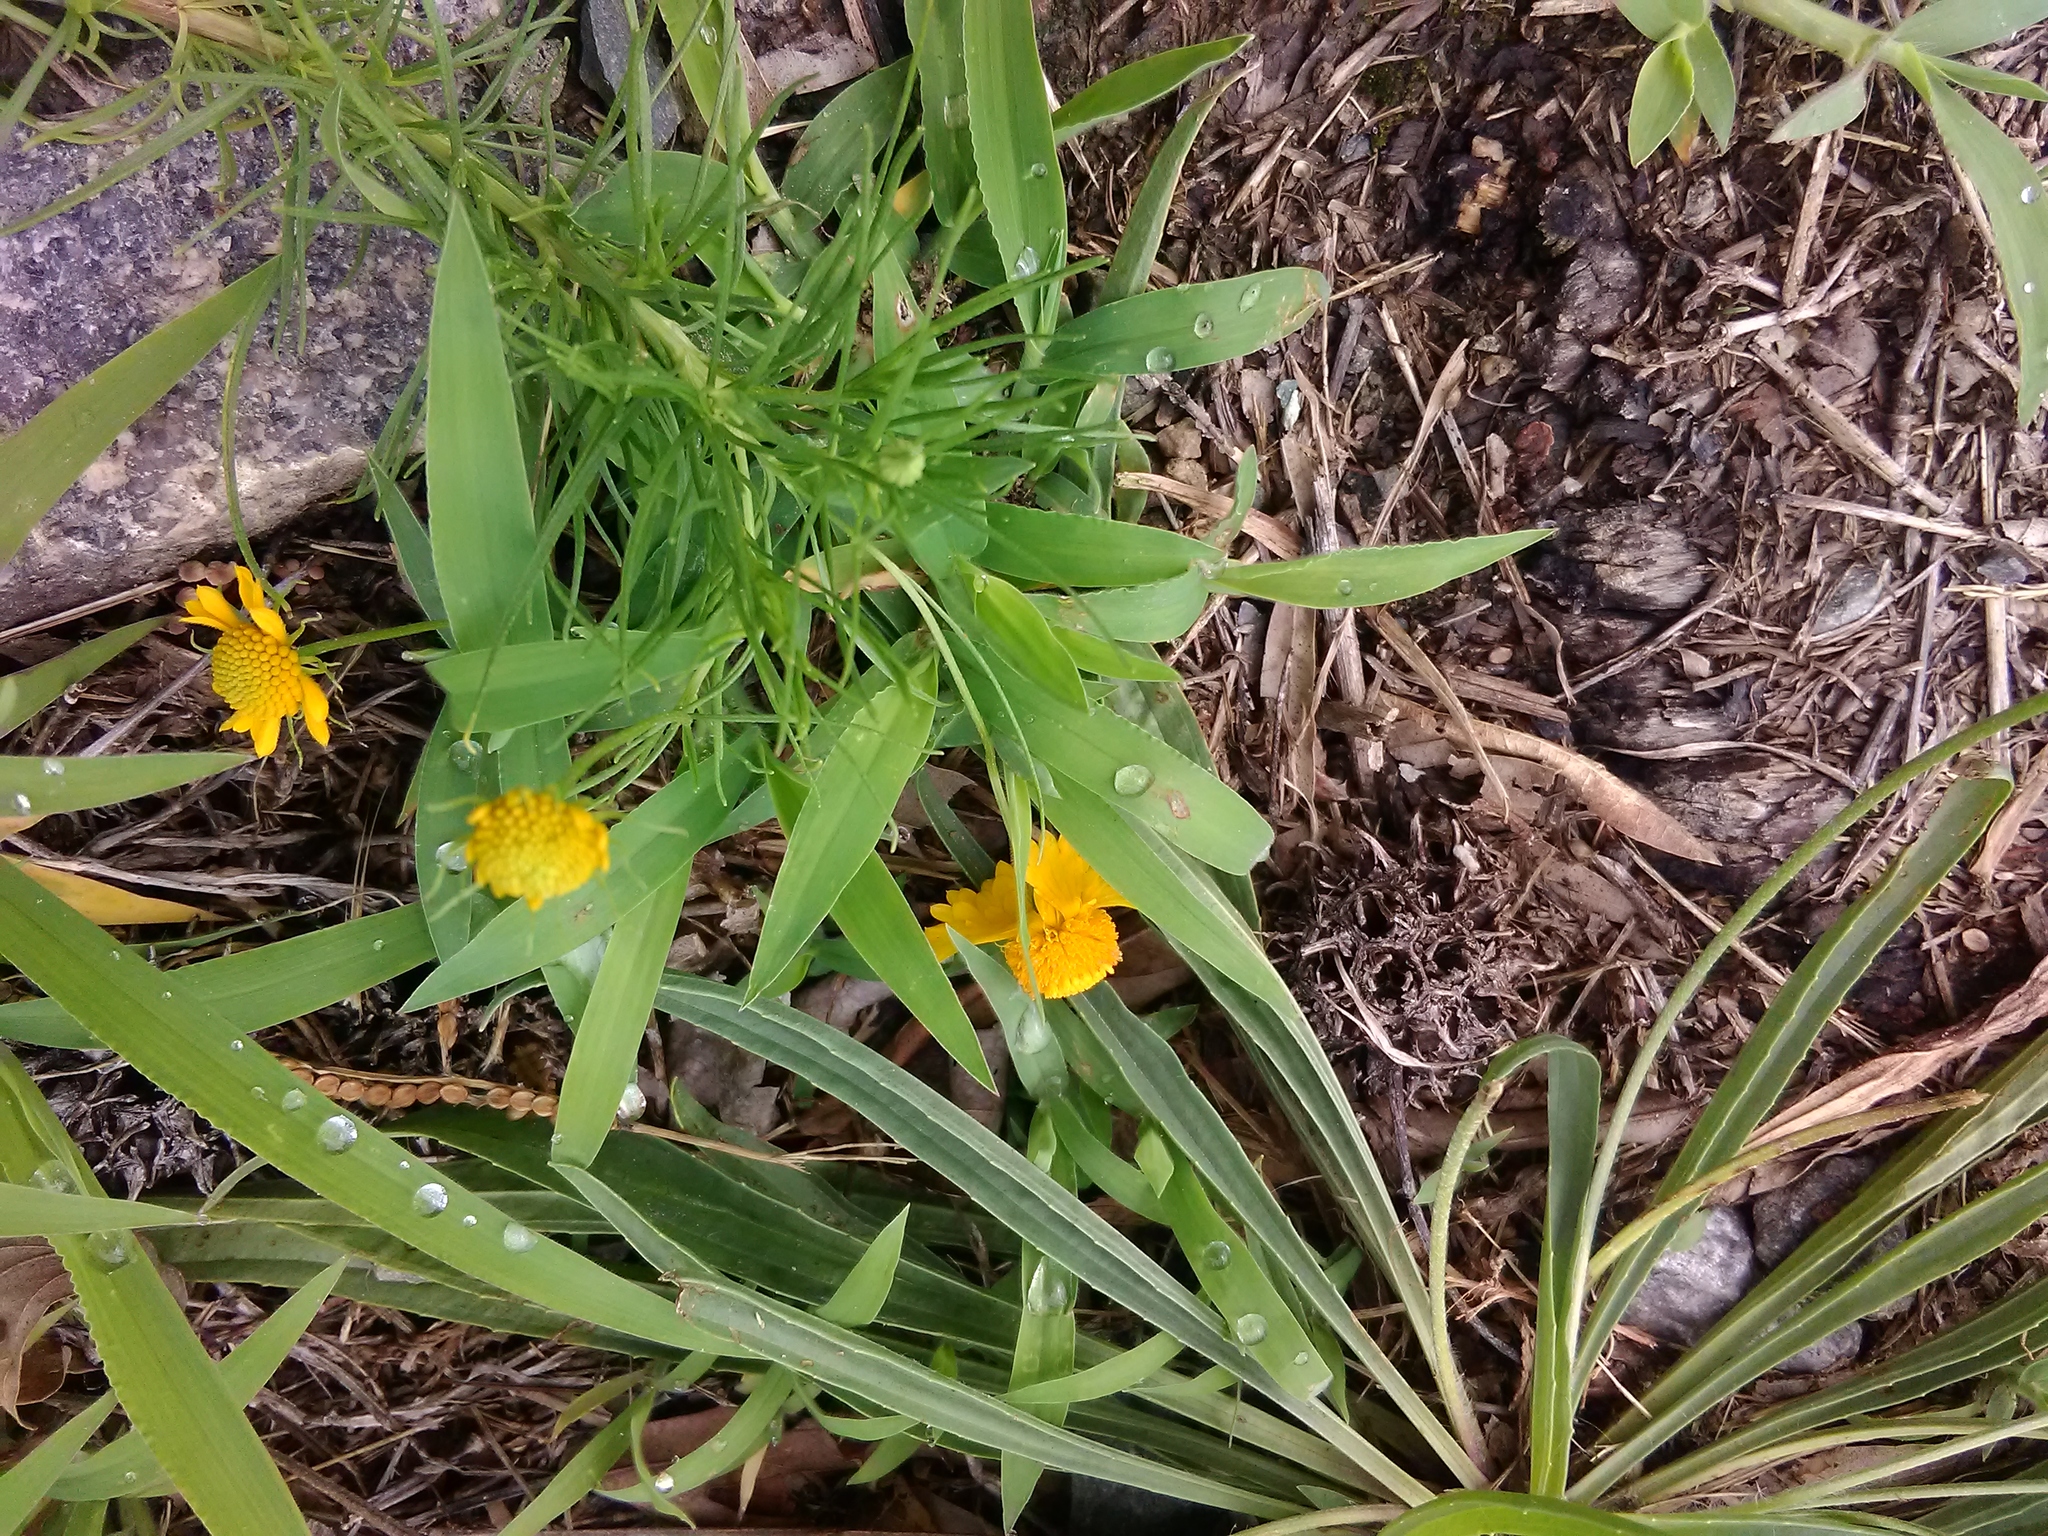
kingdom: Plantae
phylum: Tracheophyta
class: Magnoliopsida
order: Asterales
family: Asteraceae
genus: Helenium
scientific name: Helenium amarum
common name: Bitter sneezeweed
